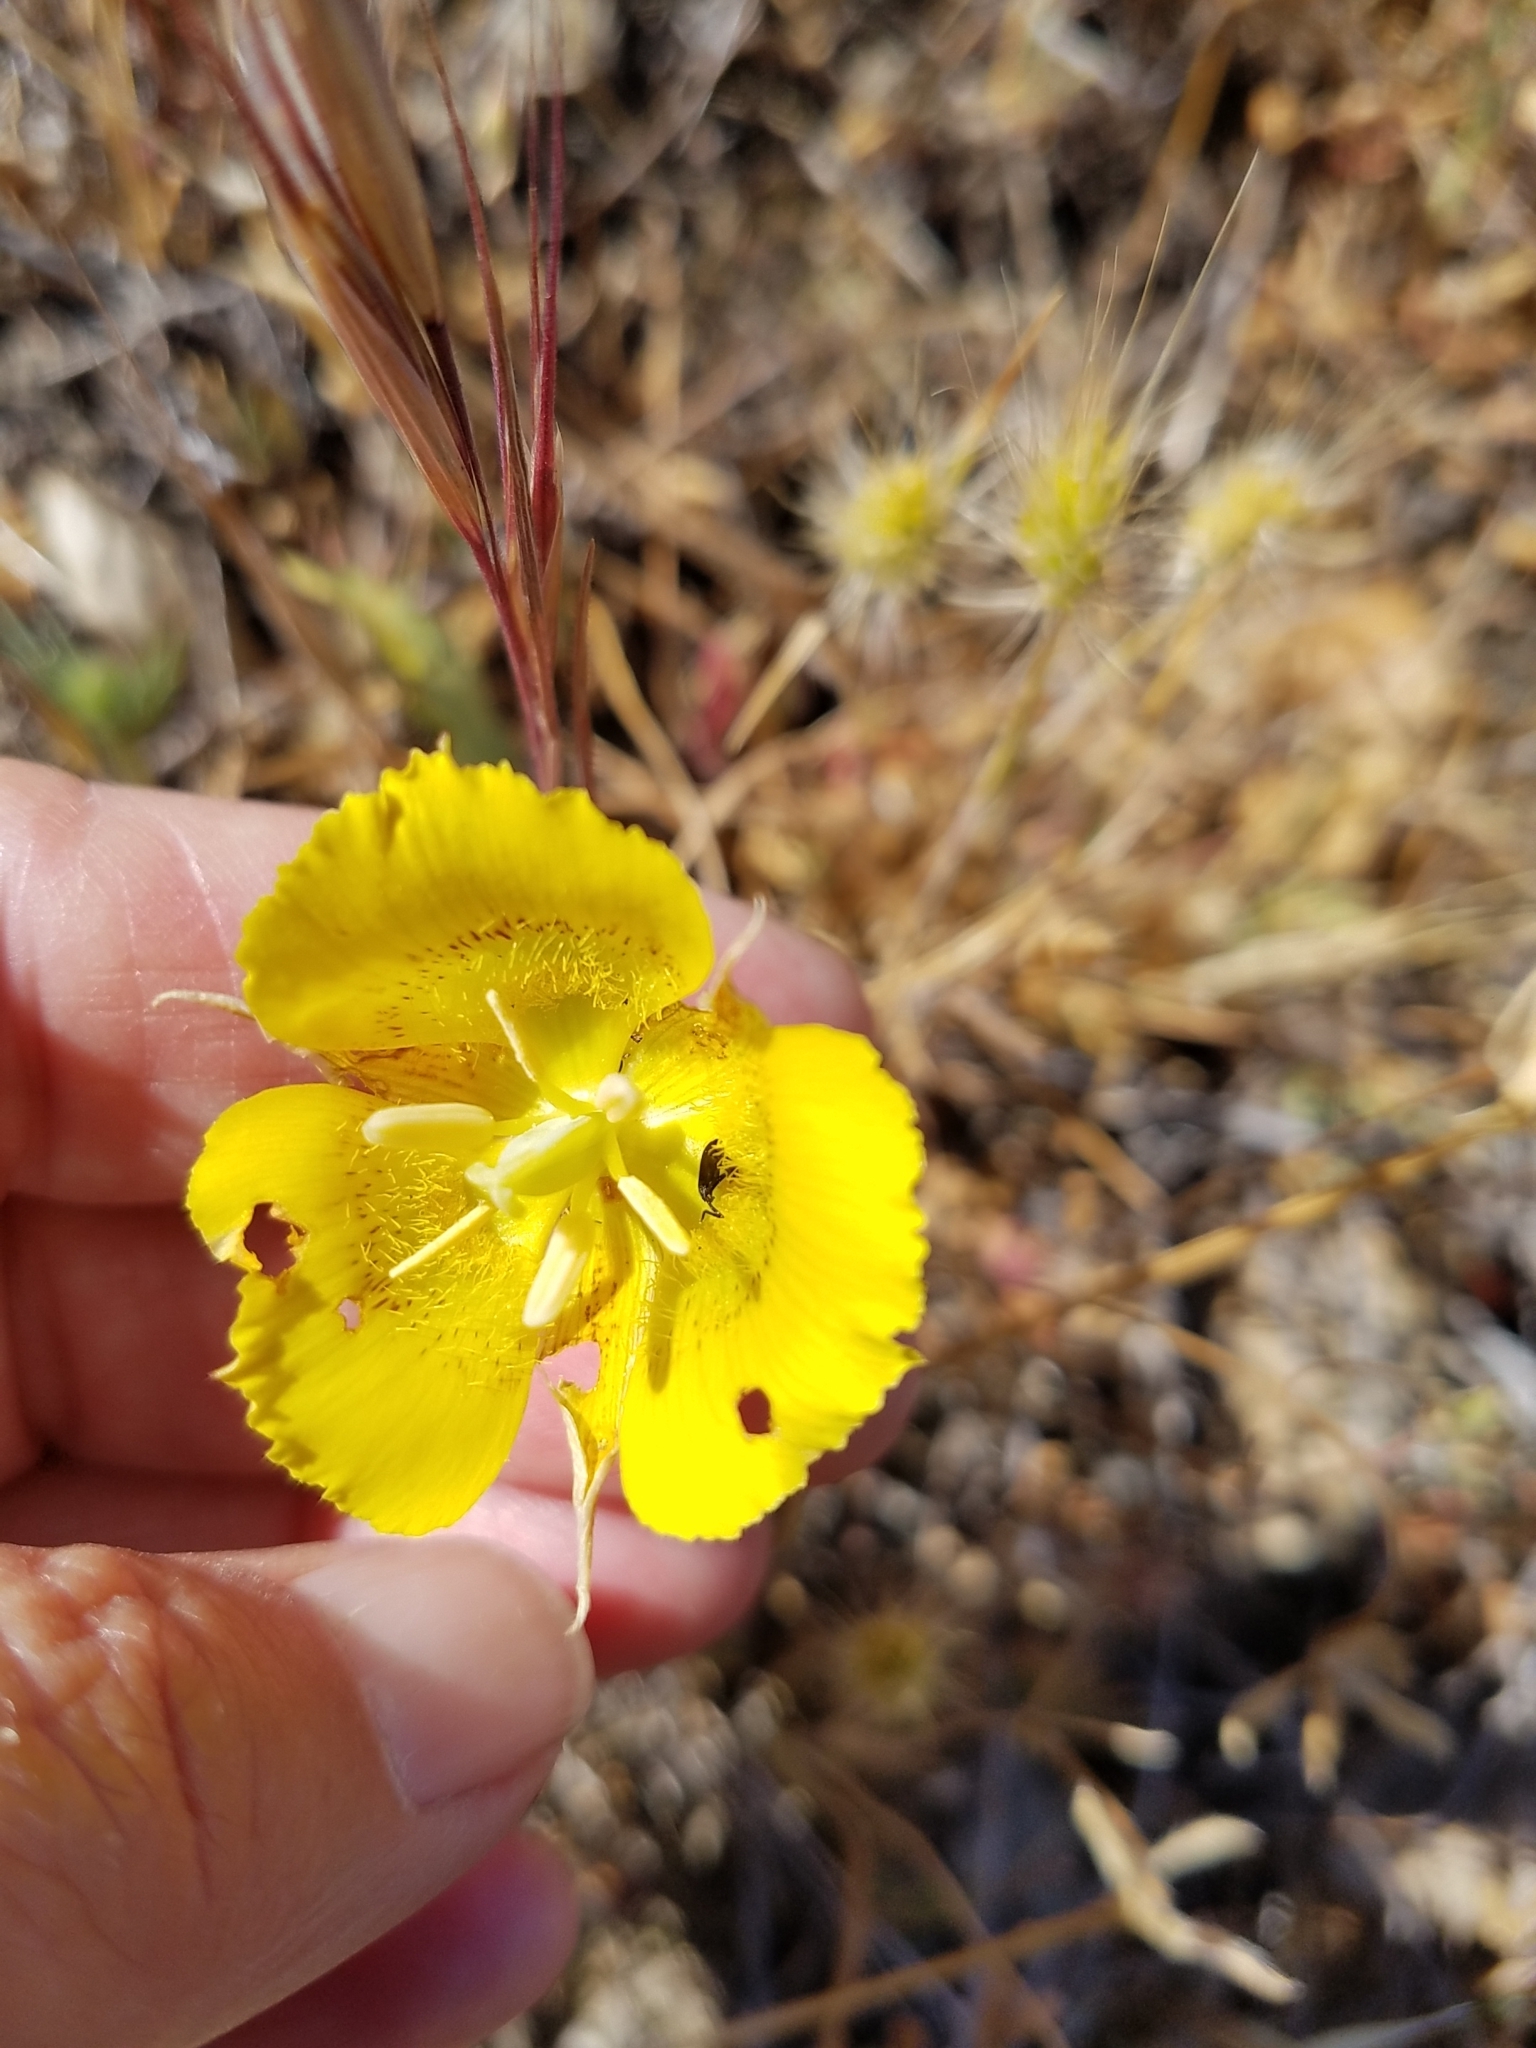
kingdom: Plantae
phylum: Tracheophyta
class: Liliopsida
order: Liliales
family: Liliaceae
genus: Calochortus
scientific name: Calochortus luteus
